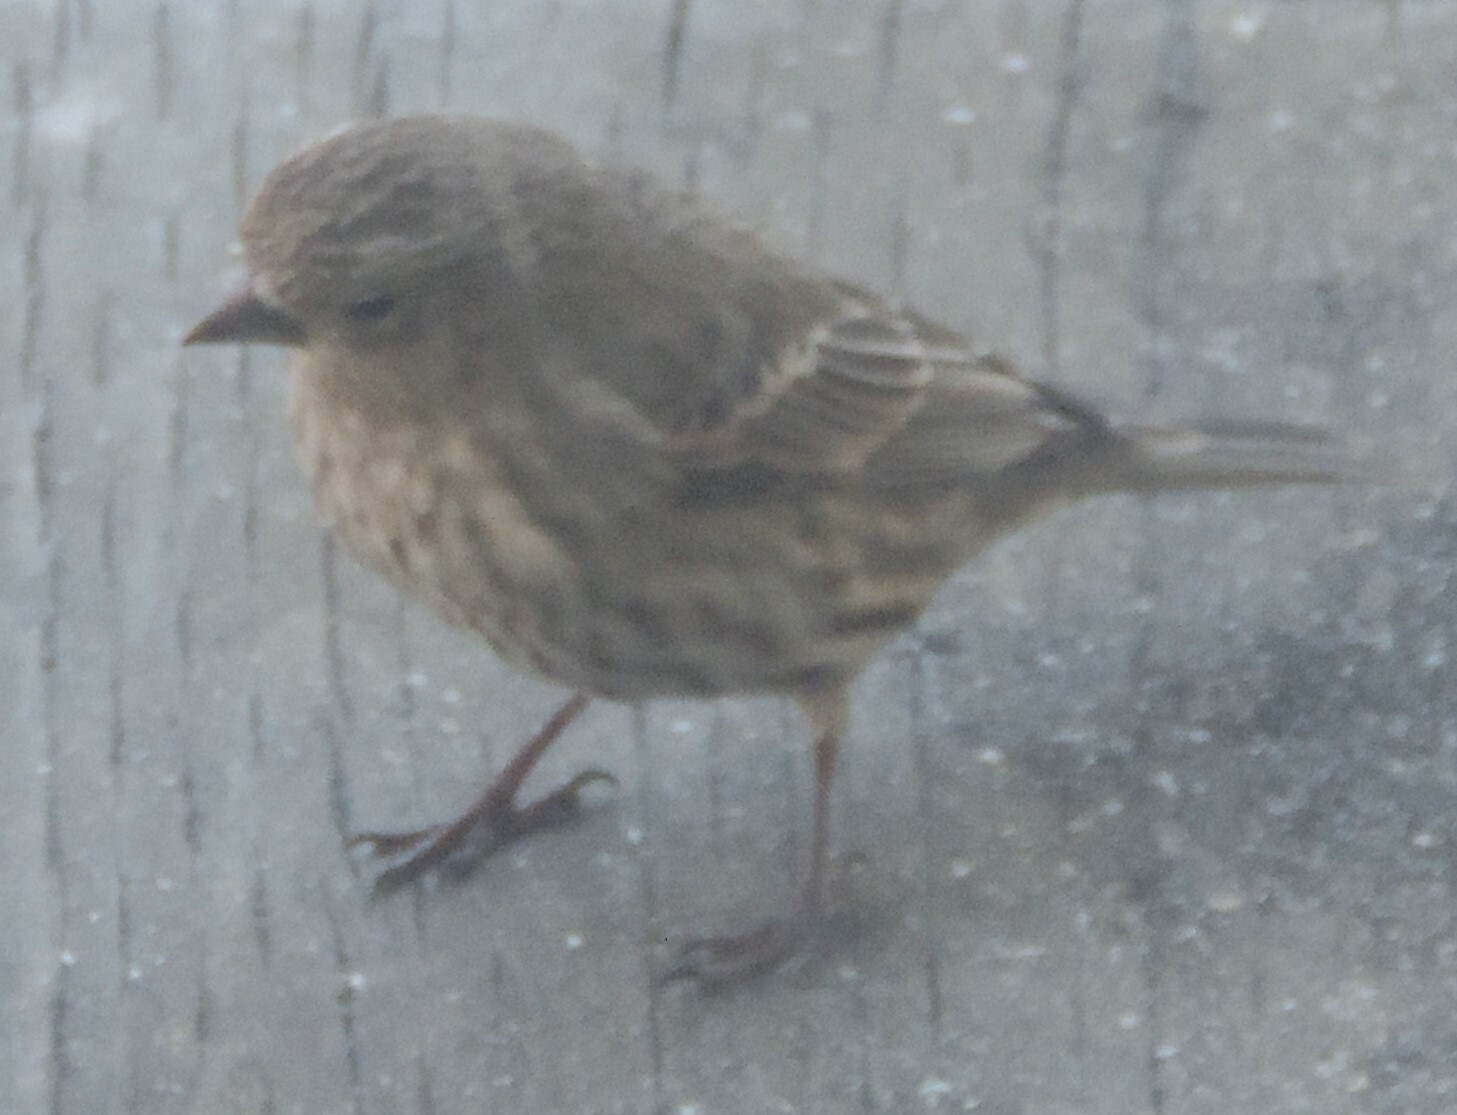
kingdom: Animalia
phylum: Chordata
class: Aves
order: Passeriformes
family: Fringillidae
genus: Haemorhous
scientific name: Haemorhous mexicanus
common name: House finch
